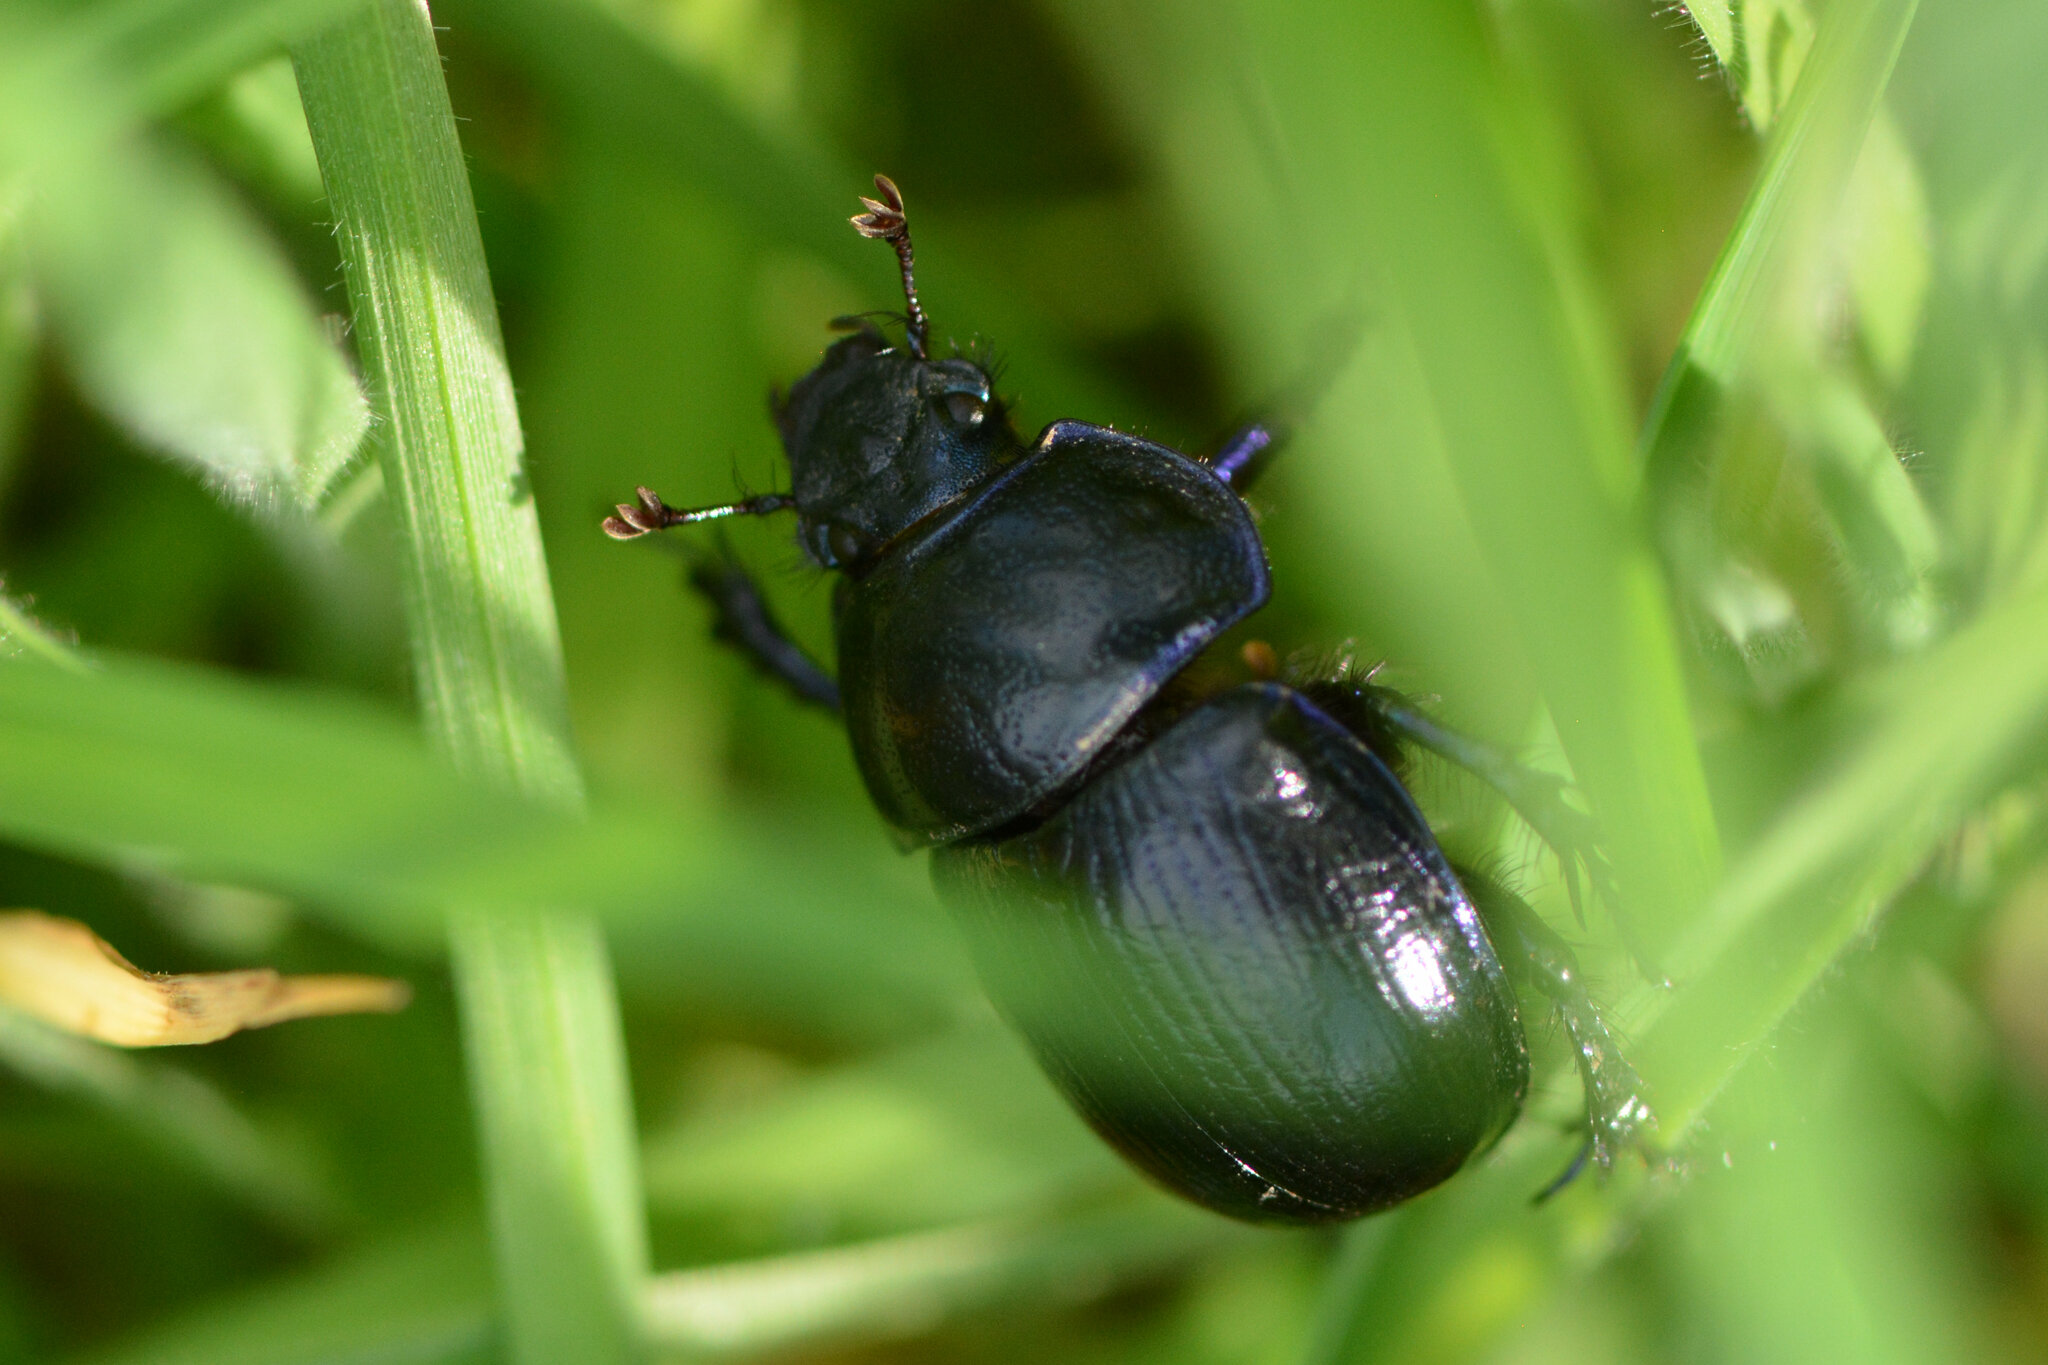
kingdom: Animalia
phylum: Arthropoda
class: Insecta
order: Coleoptera
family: Geotrupidae
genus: Anoplotrupes
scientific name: Anoplotrupes stercorosus
